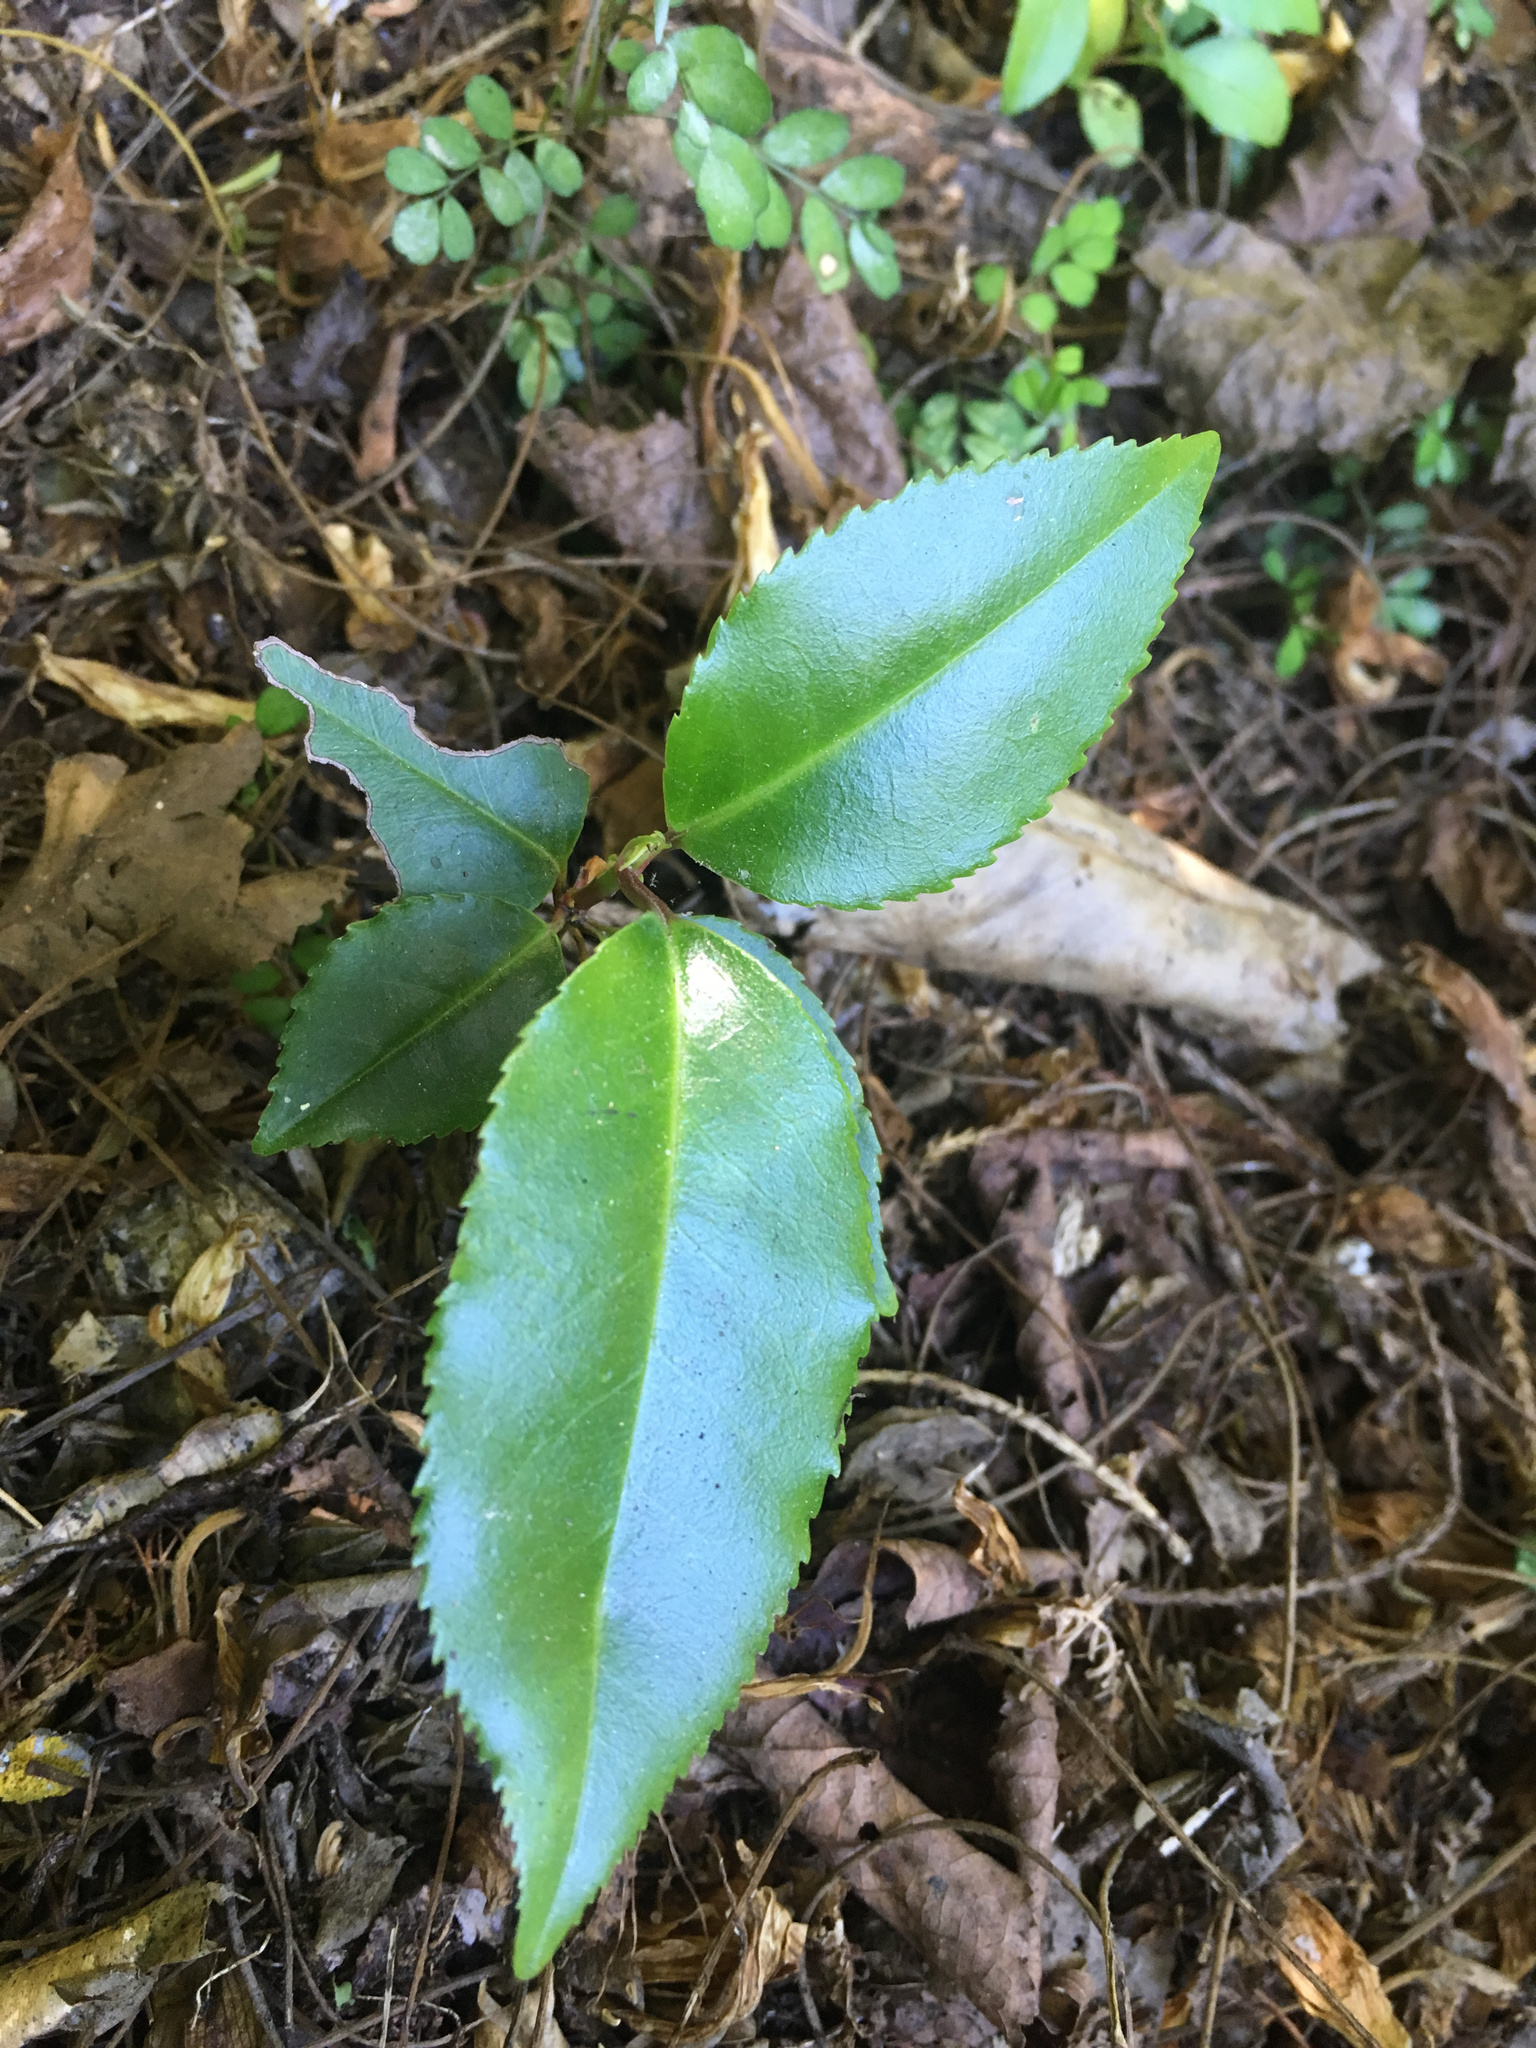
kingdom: Plantae
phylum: Tracheophyta
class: Magnoliopsida
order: Rosales
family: Rosaceae
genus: Prunus
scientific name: Prunus lusitanica
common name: Portugal laurel
